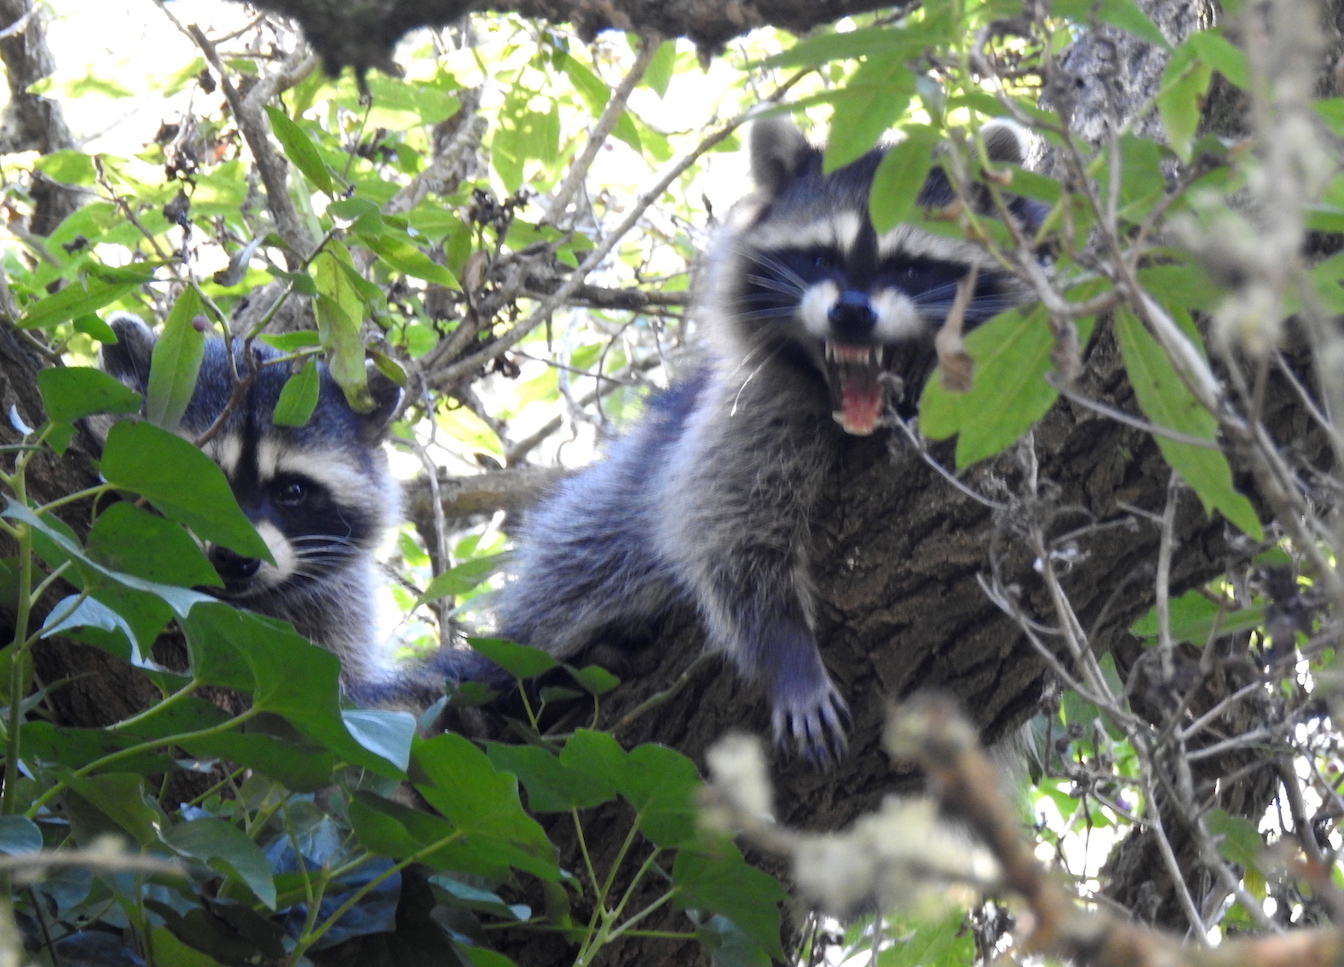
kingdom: Animalia
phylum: Chordata
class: Mammalia
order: Carnivora
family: Procyonidae
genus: Procyon
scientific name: Procyon lotor
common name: Raccoon
